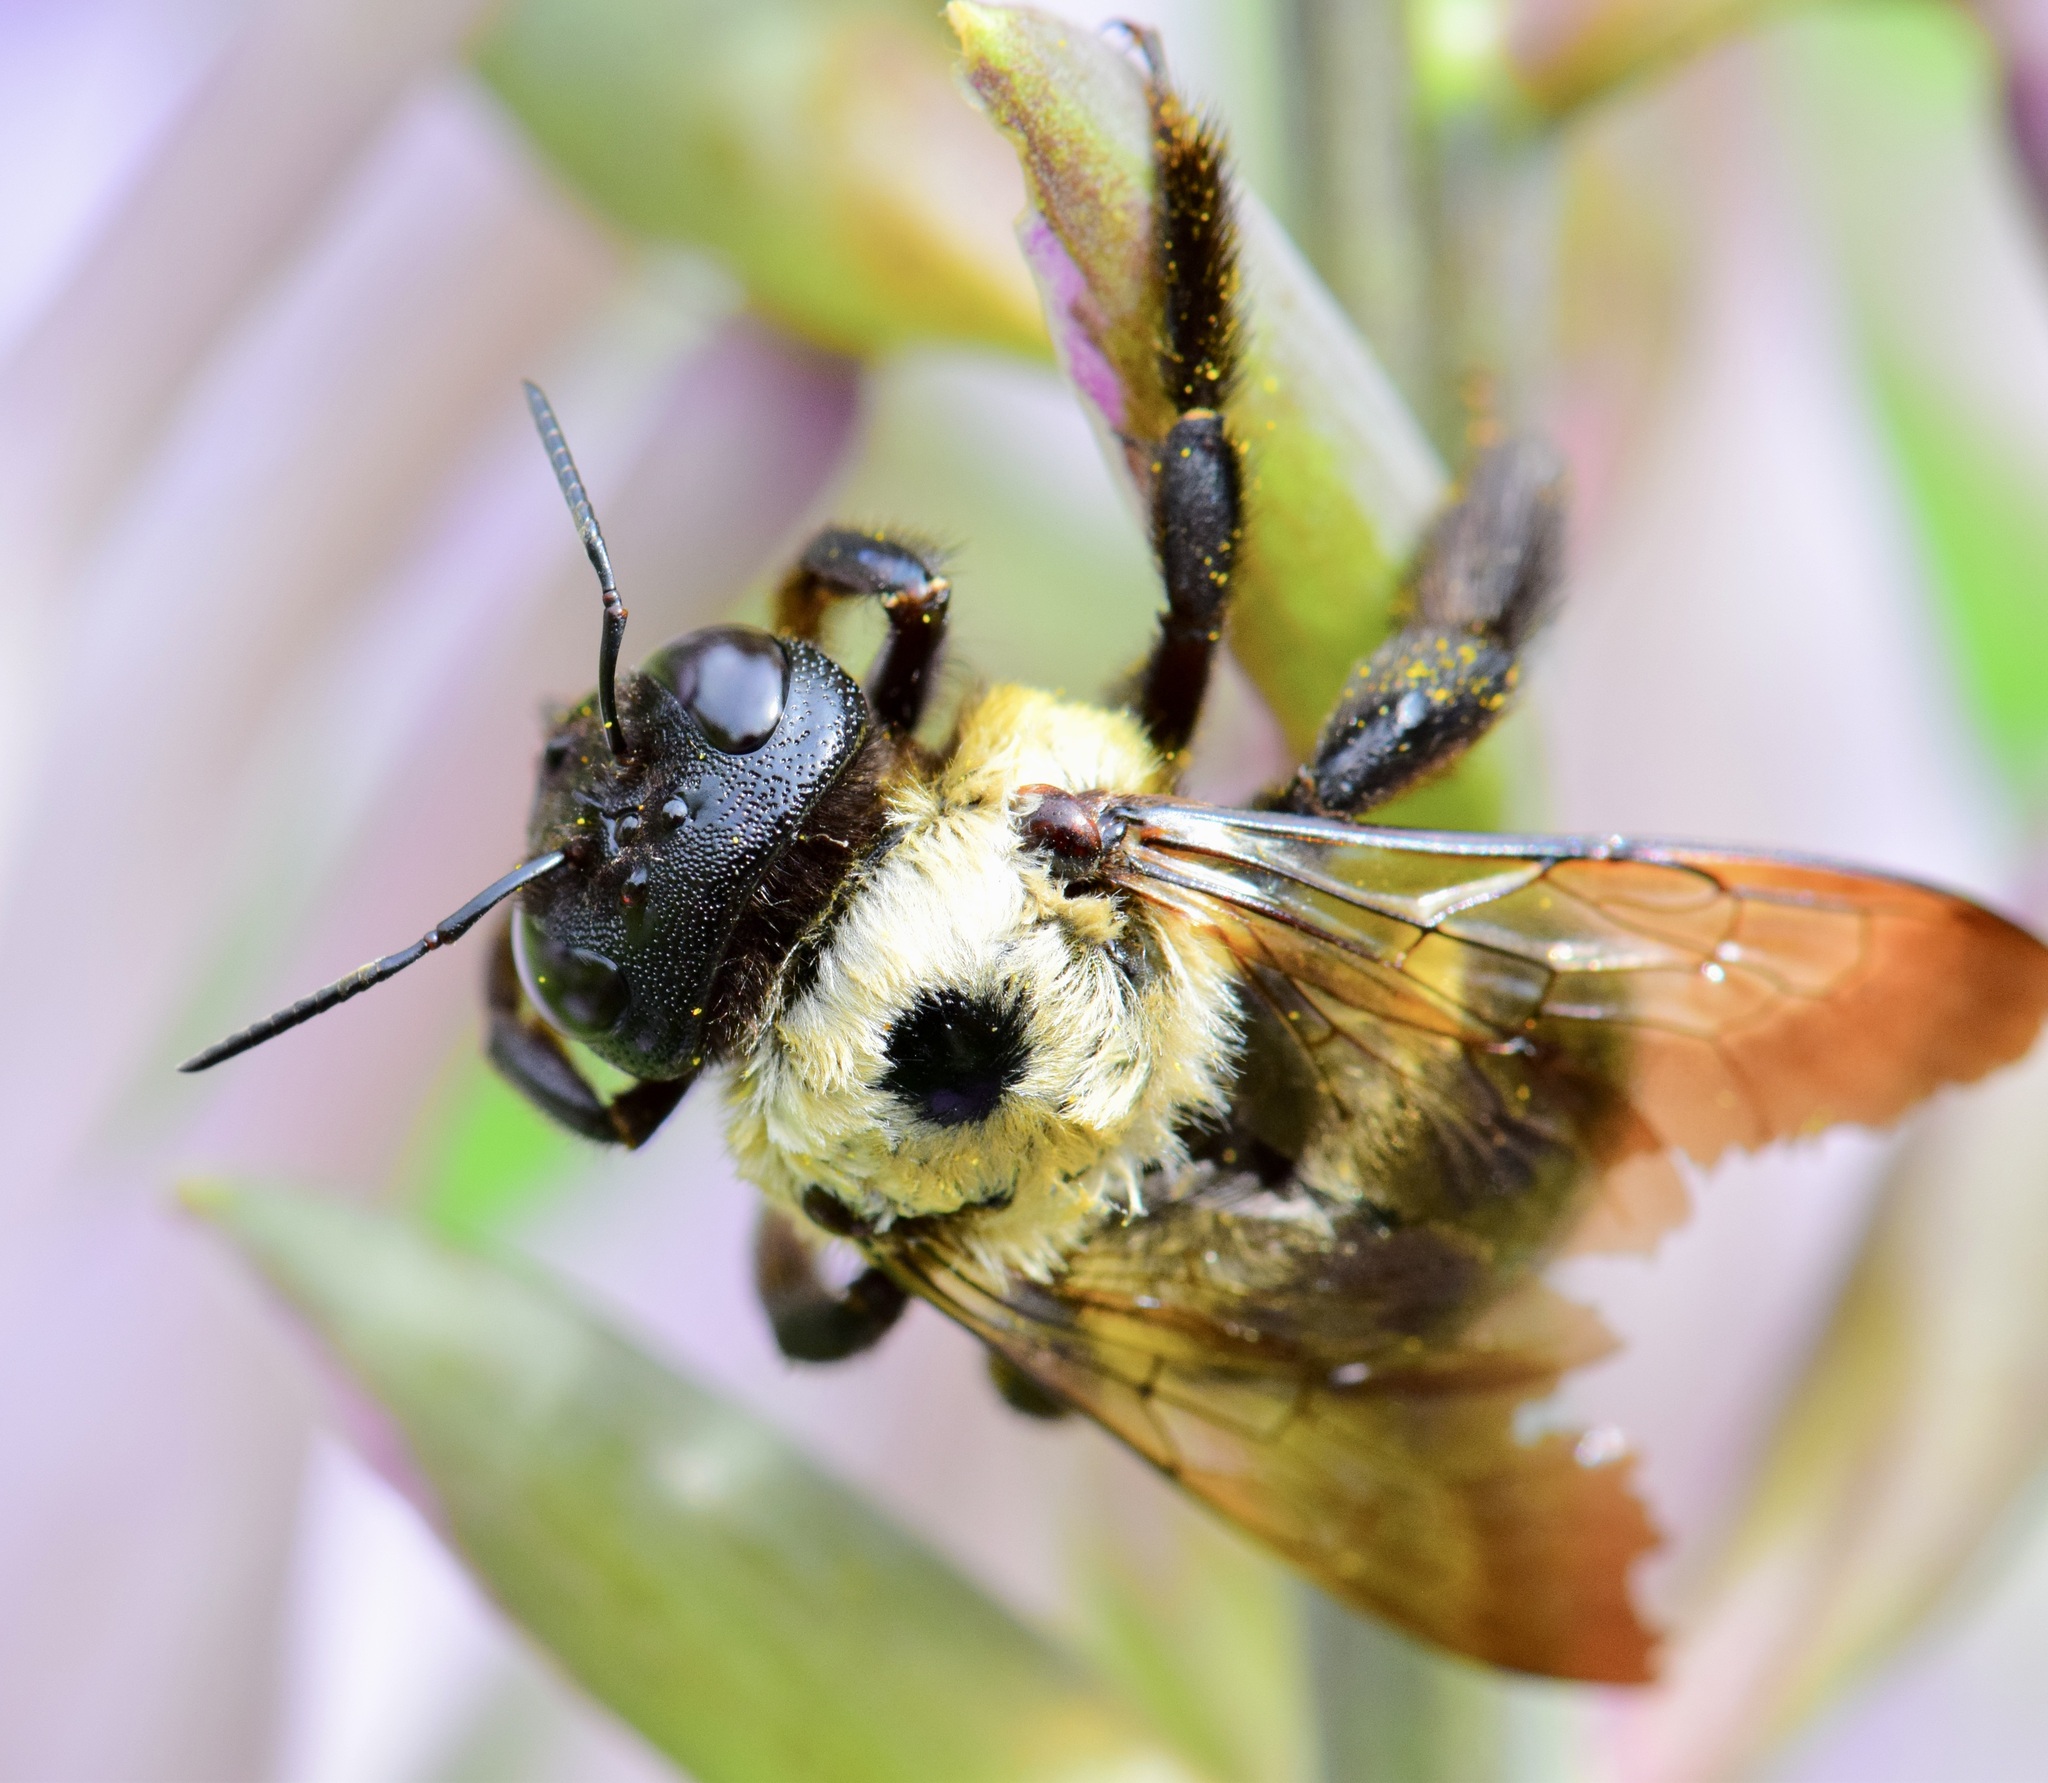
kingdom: Animalia
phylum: Arthropoda
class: Insecta
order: Hymenoptera
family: Apidae
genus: Xylocopa
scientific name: Xylocopa virginica
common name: Carpenter bee
